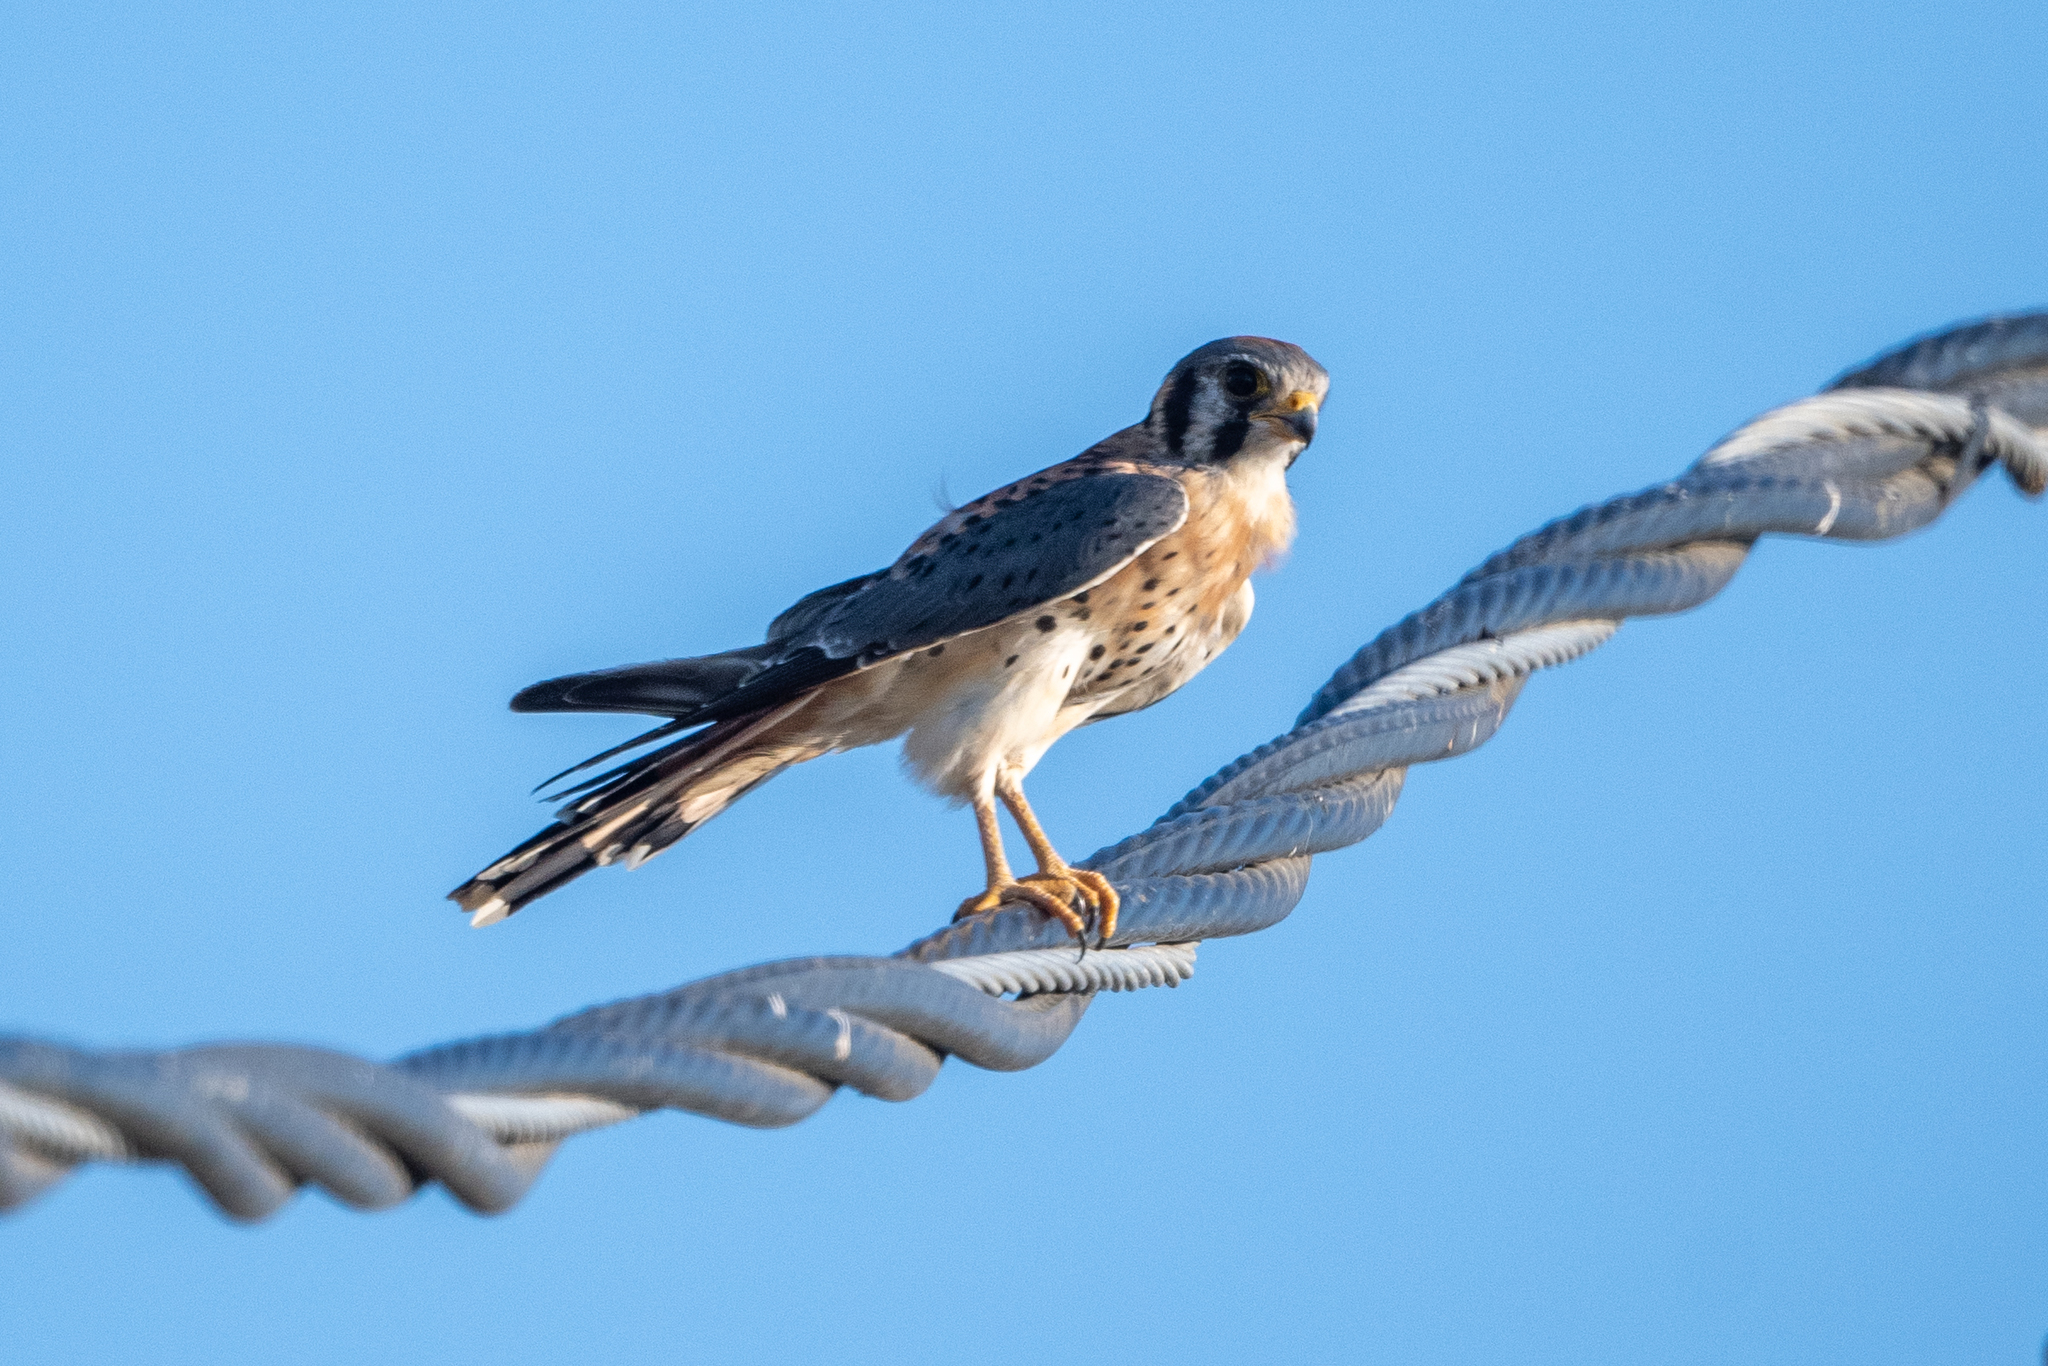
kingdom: Animalia
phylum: Chordata
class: Aves
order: Falconiformes
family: Falconidae
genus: Falco
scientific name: Falco sparverius
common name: American kestrel
